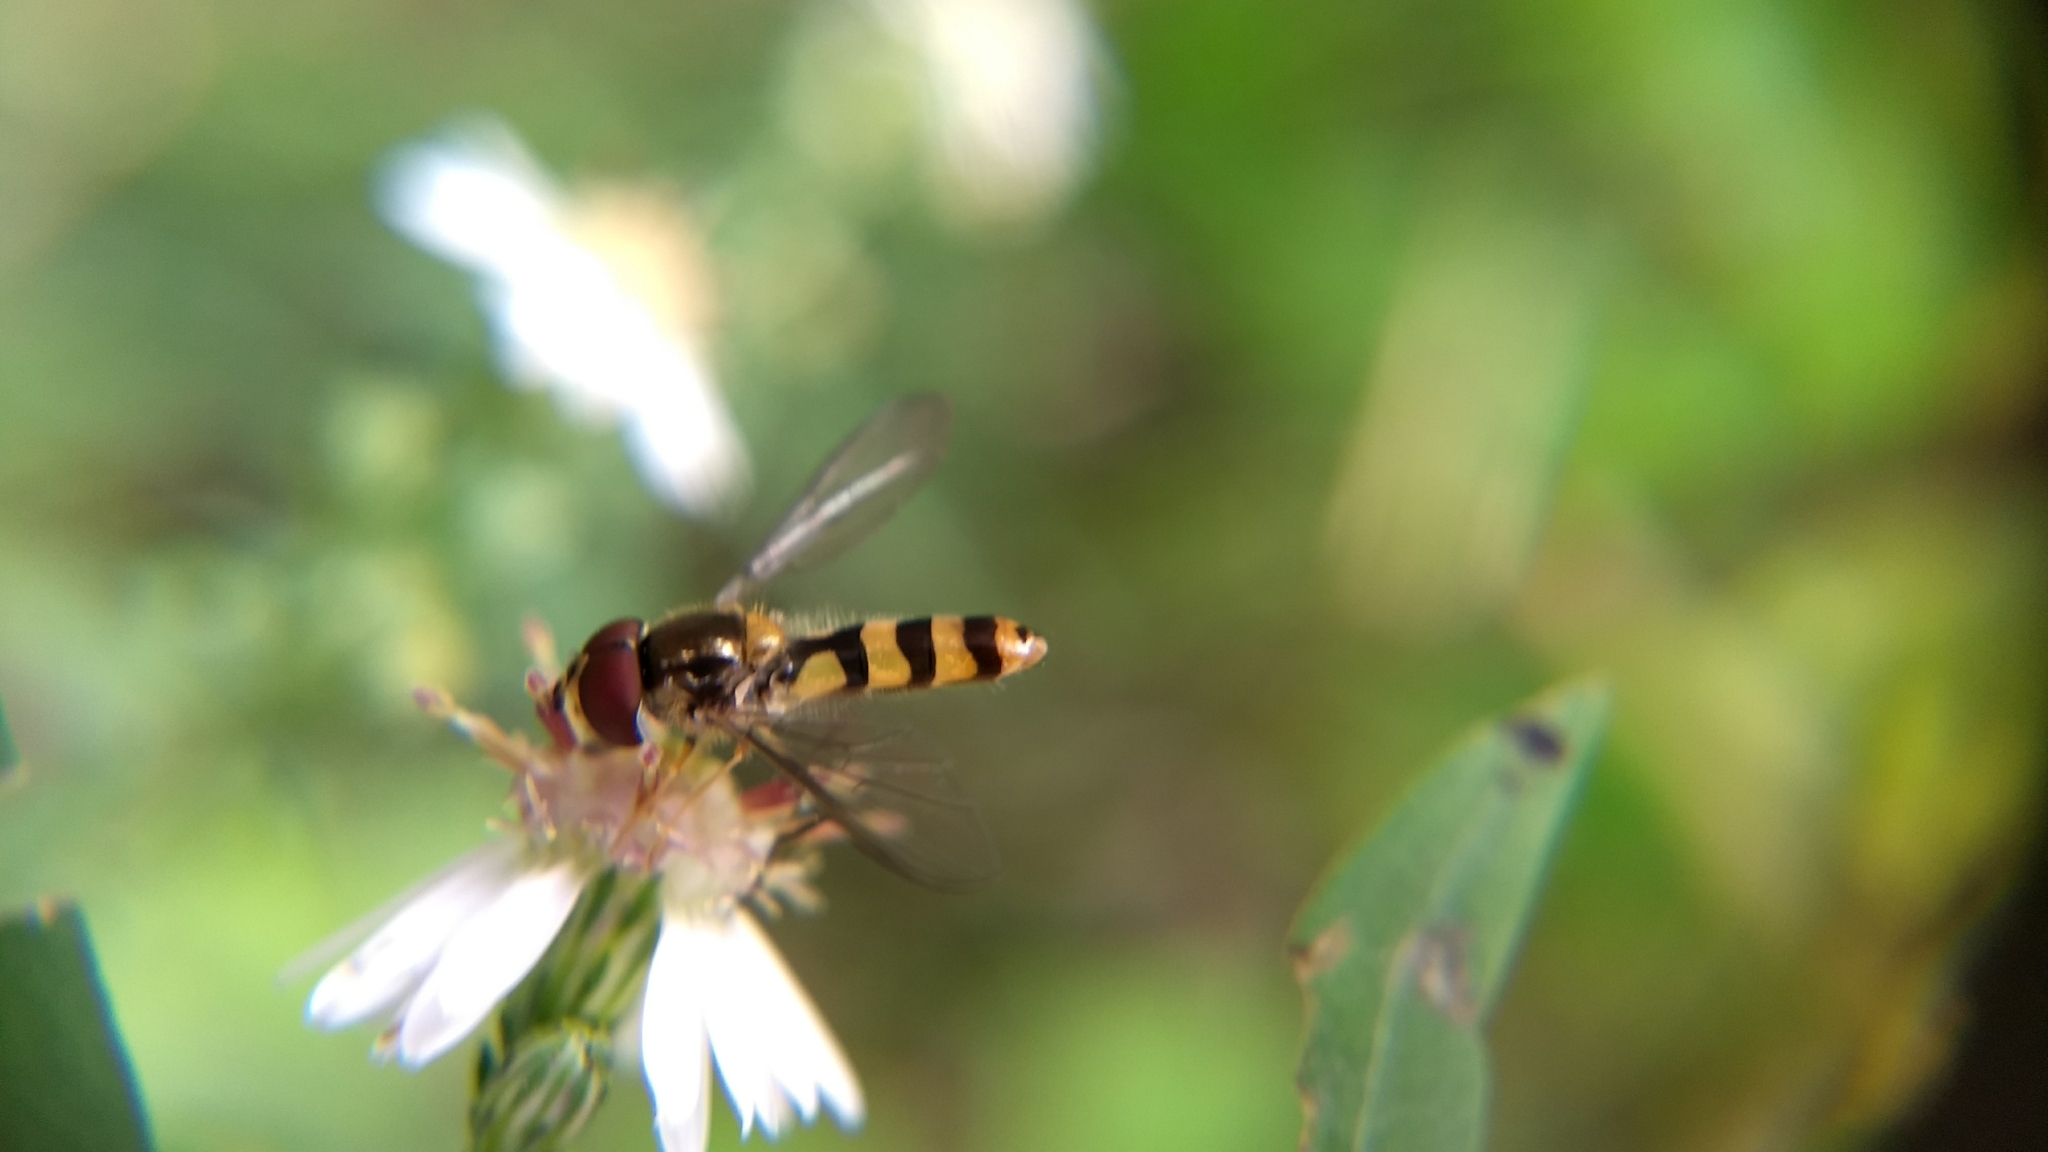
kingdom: Animalia
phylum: Arthropoda
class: Insecta
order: Diptera
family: Syrphidae
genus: Meliscaeva
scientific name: Meliscaeva cinctella
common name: American thintail fly
